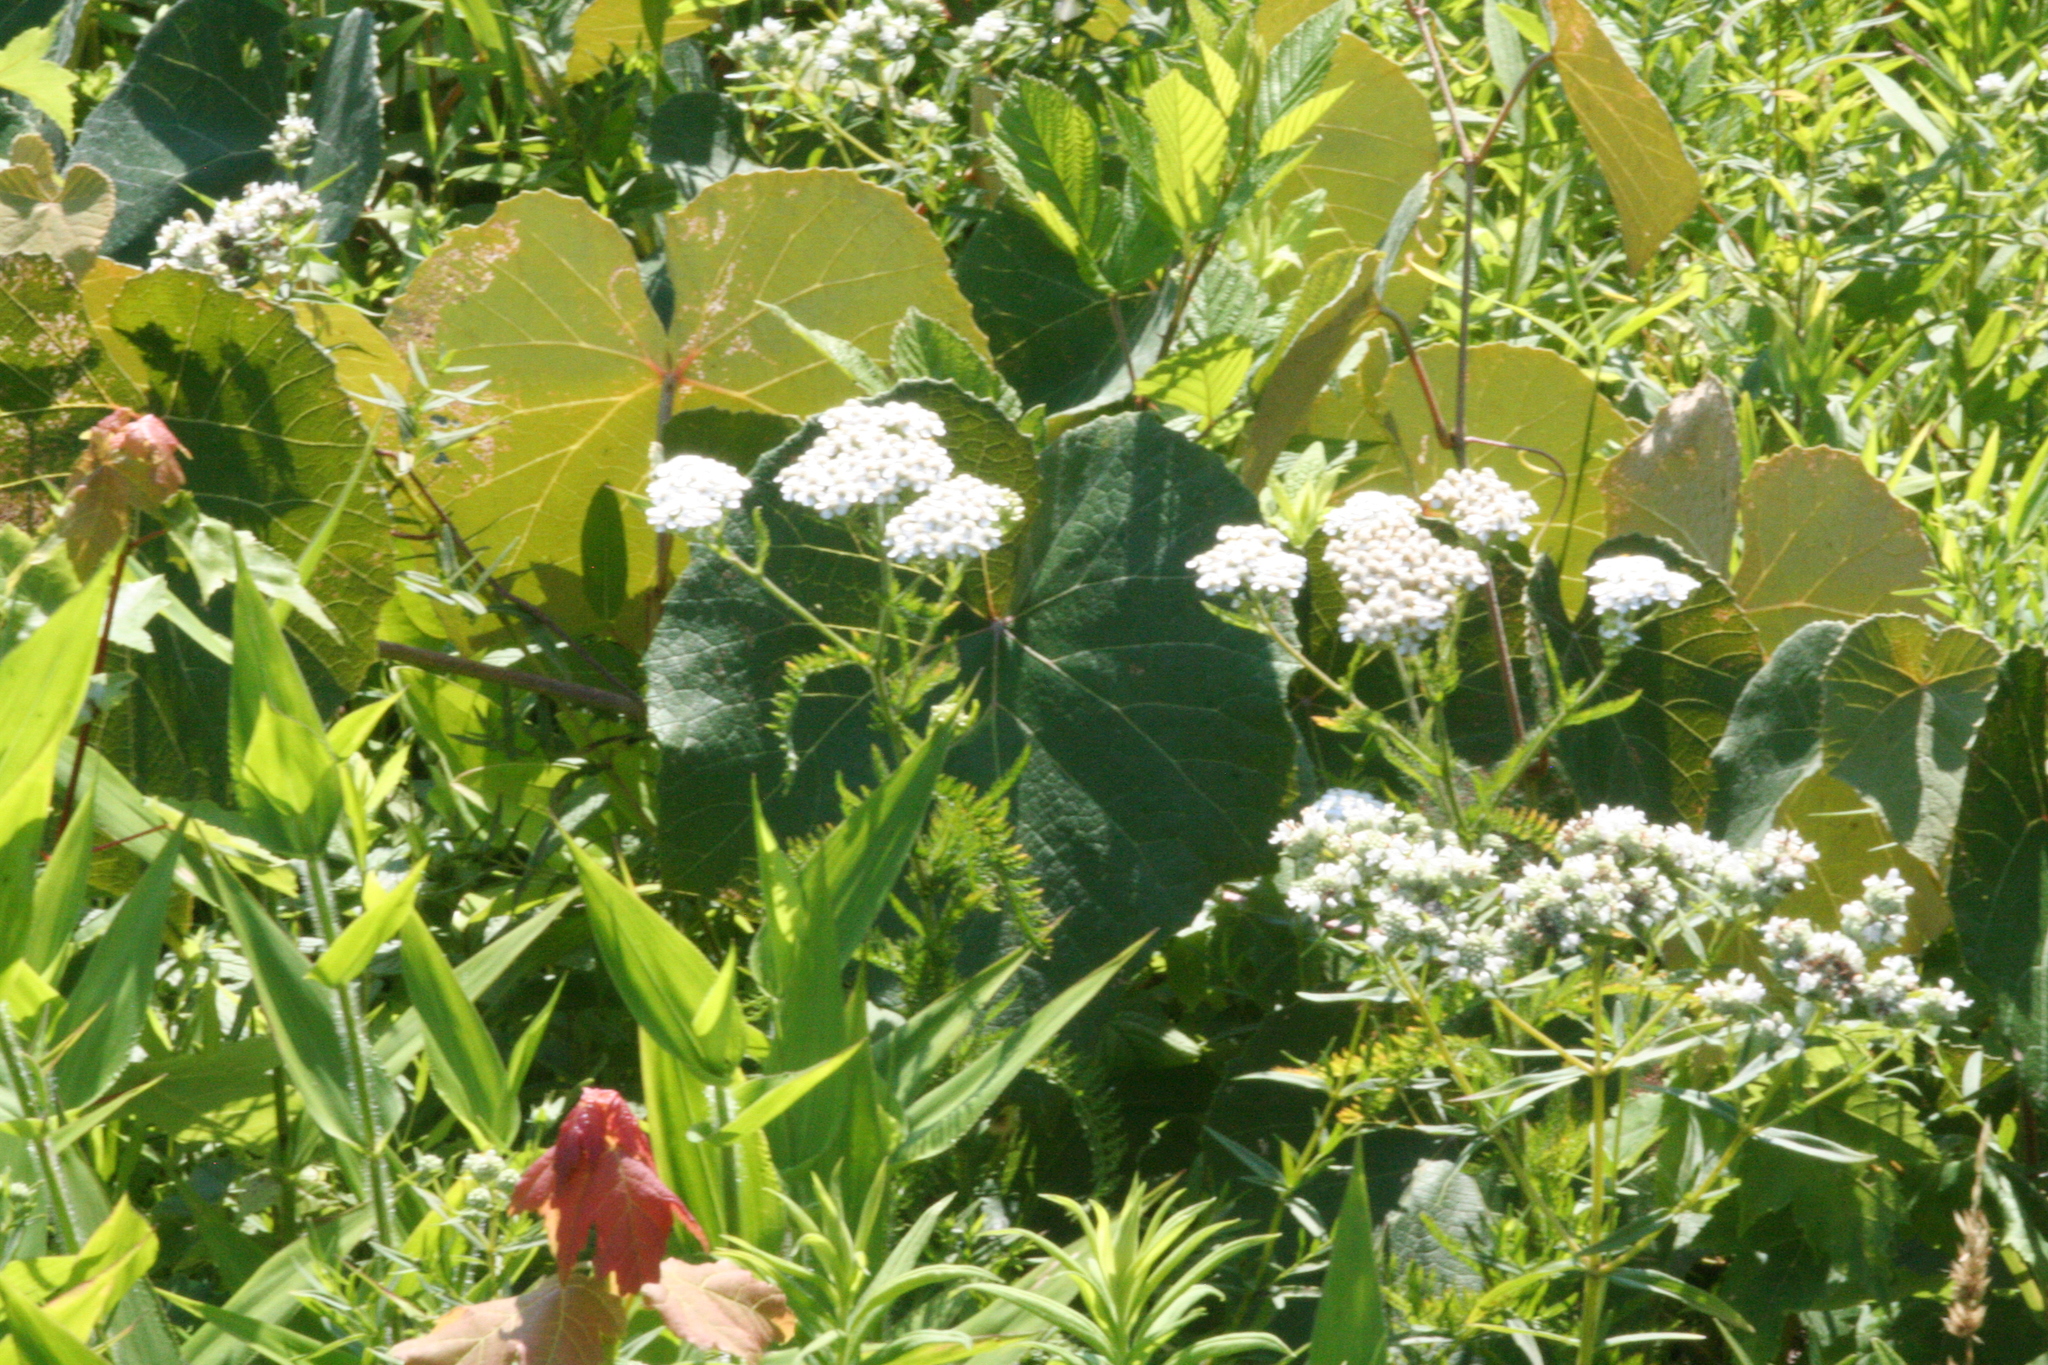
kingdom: Plantae
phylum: Tracheophyta
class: Magnoliopsida
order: Asterales
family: Asteraceae
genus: Achillea
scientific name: Achillea millefolium
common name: Yarrow
